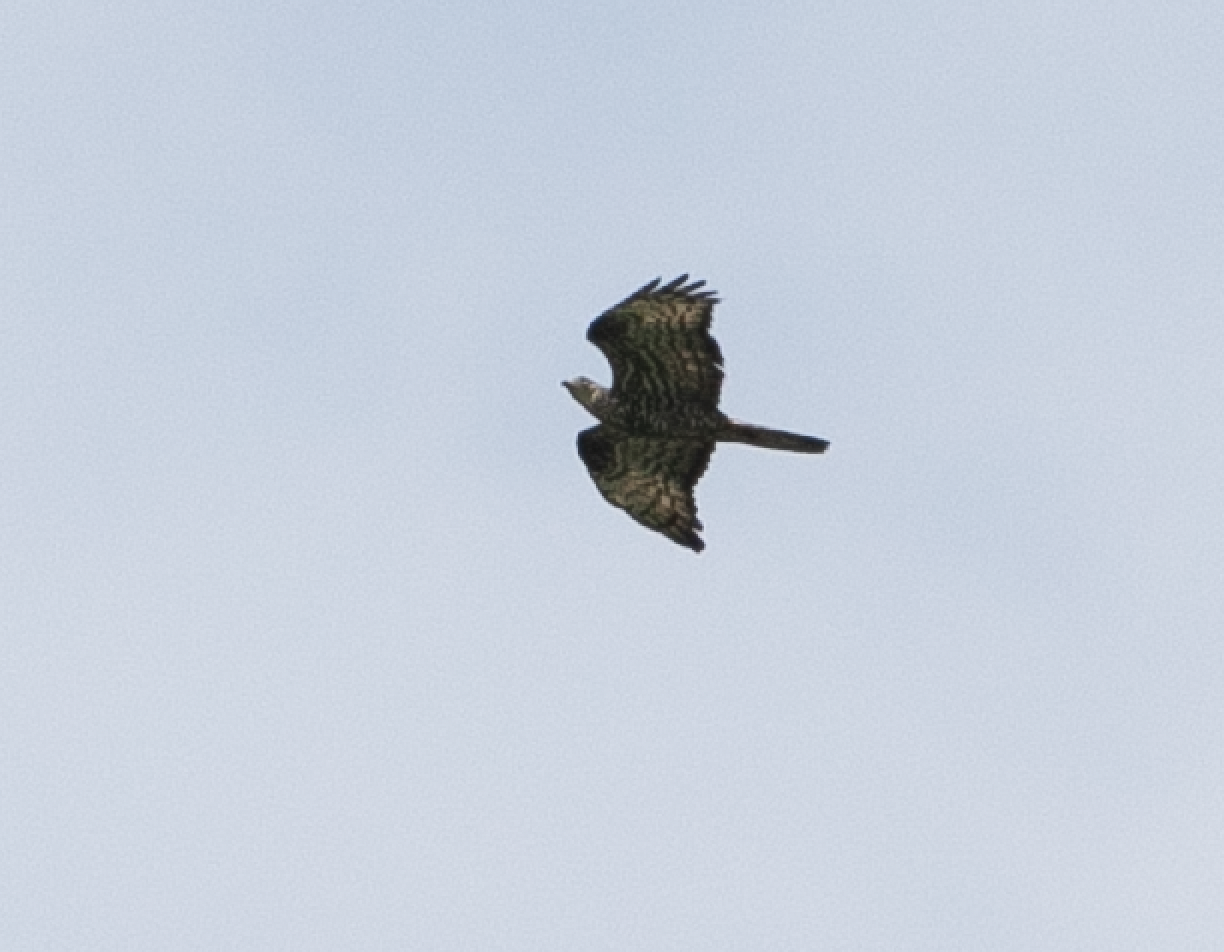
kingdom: Animalia
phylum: Chordata
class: Aves
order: Accipitriformes
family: Accipitridae
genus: Pernis
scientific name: Pernis apivorus
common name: European honey buzzard
